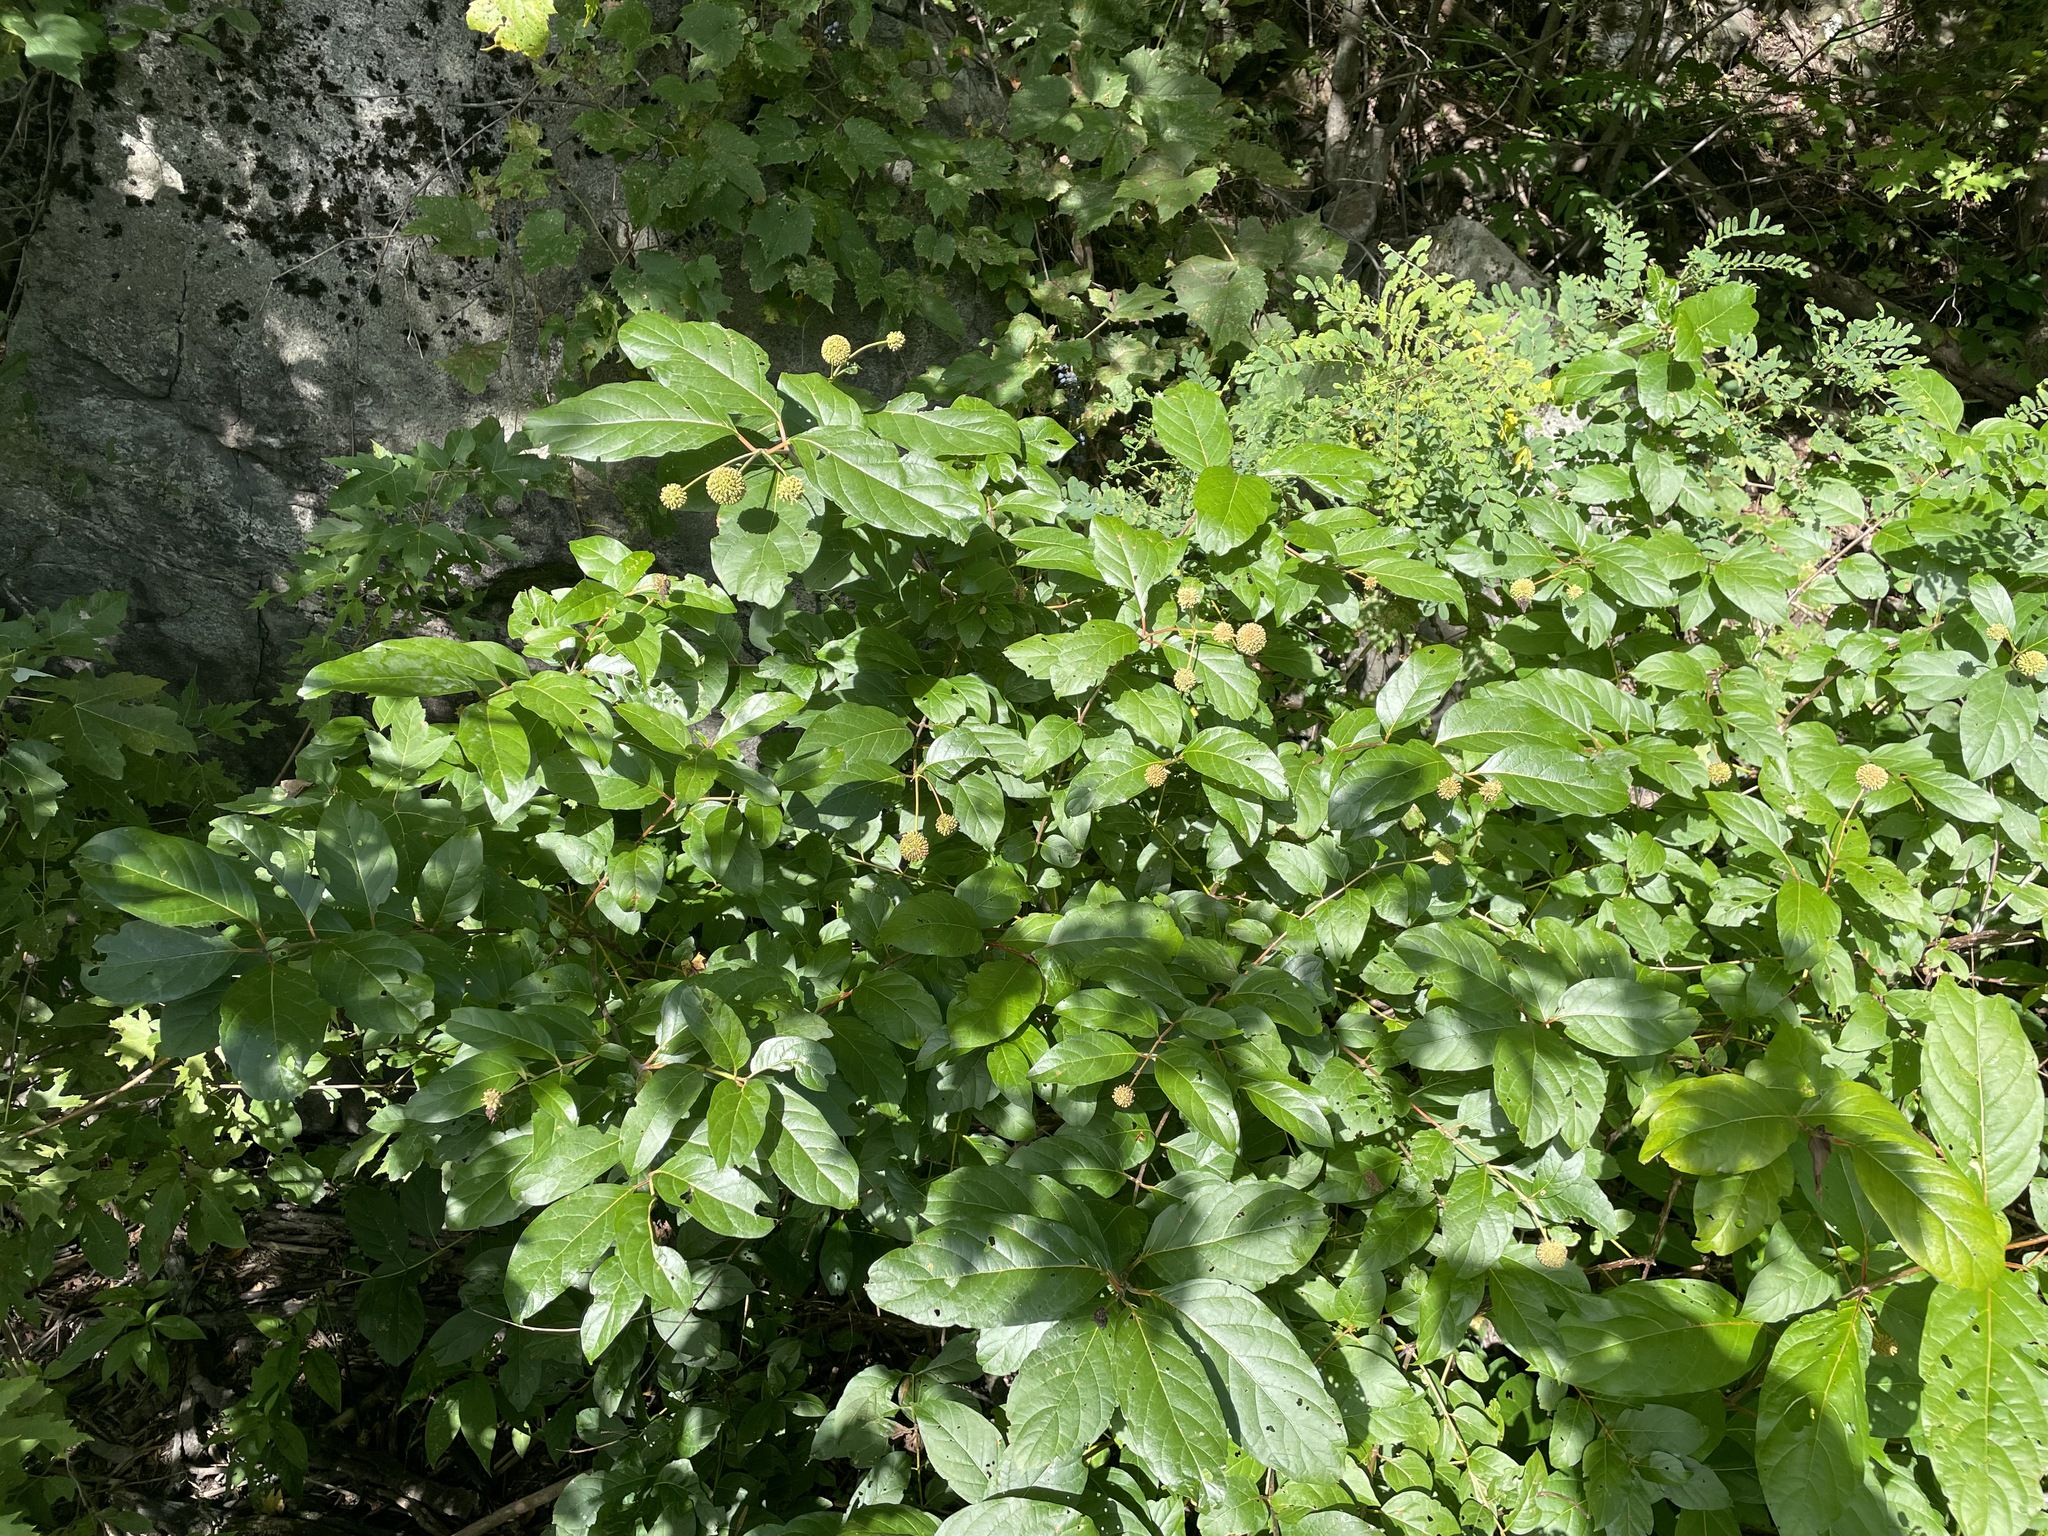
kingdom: Plantae
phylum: Tracheophyta
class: Magnoliopsida
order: Gentianales
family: Rubiaceae
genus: Cephalanthus
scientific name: Cephalanthus occidentalis
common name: Button-willow
